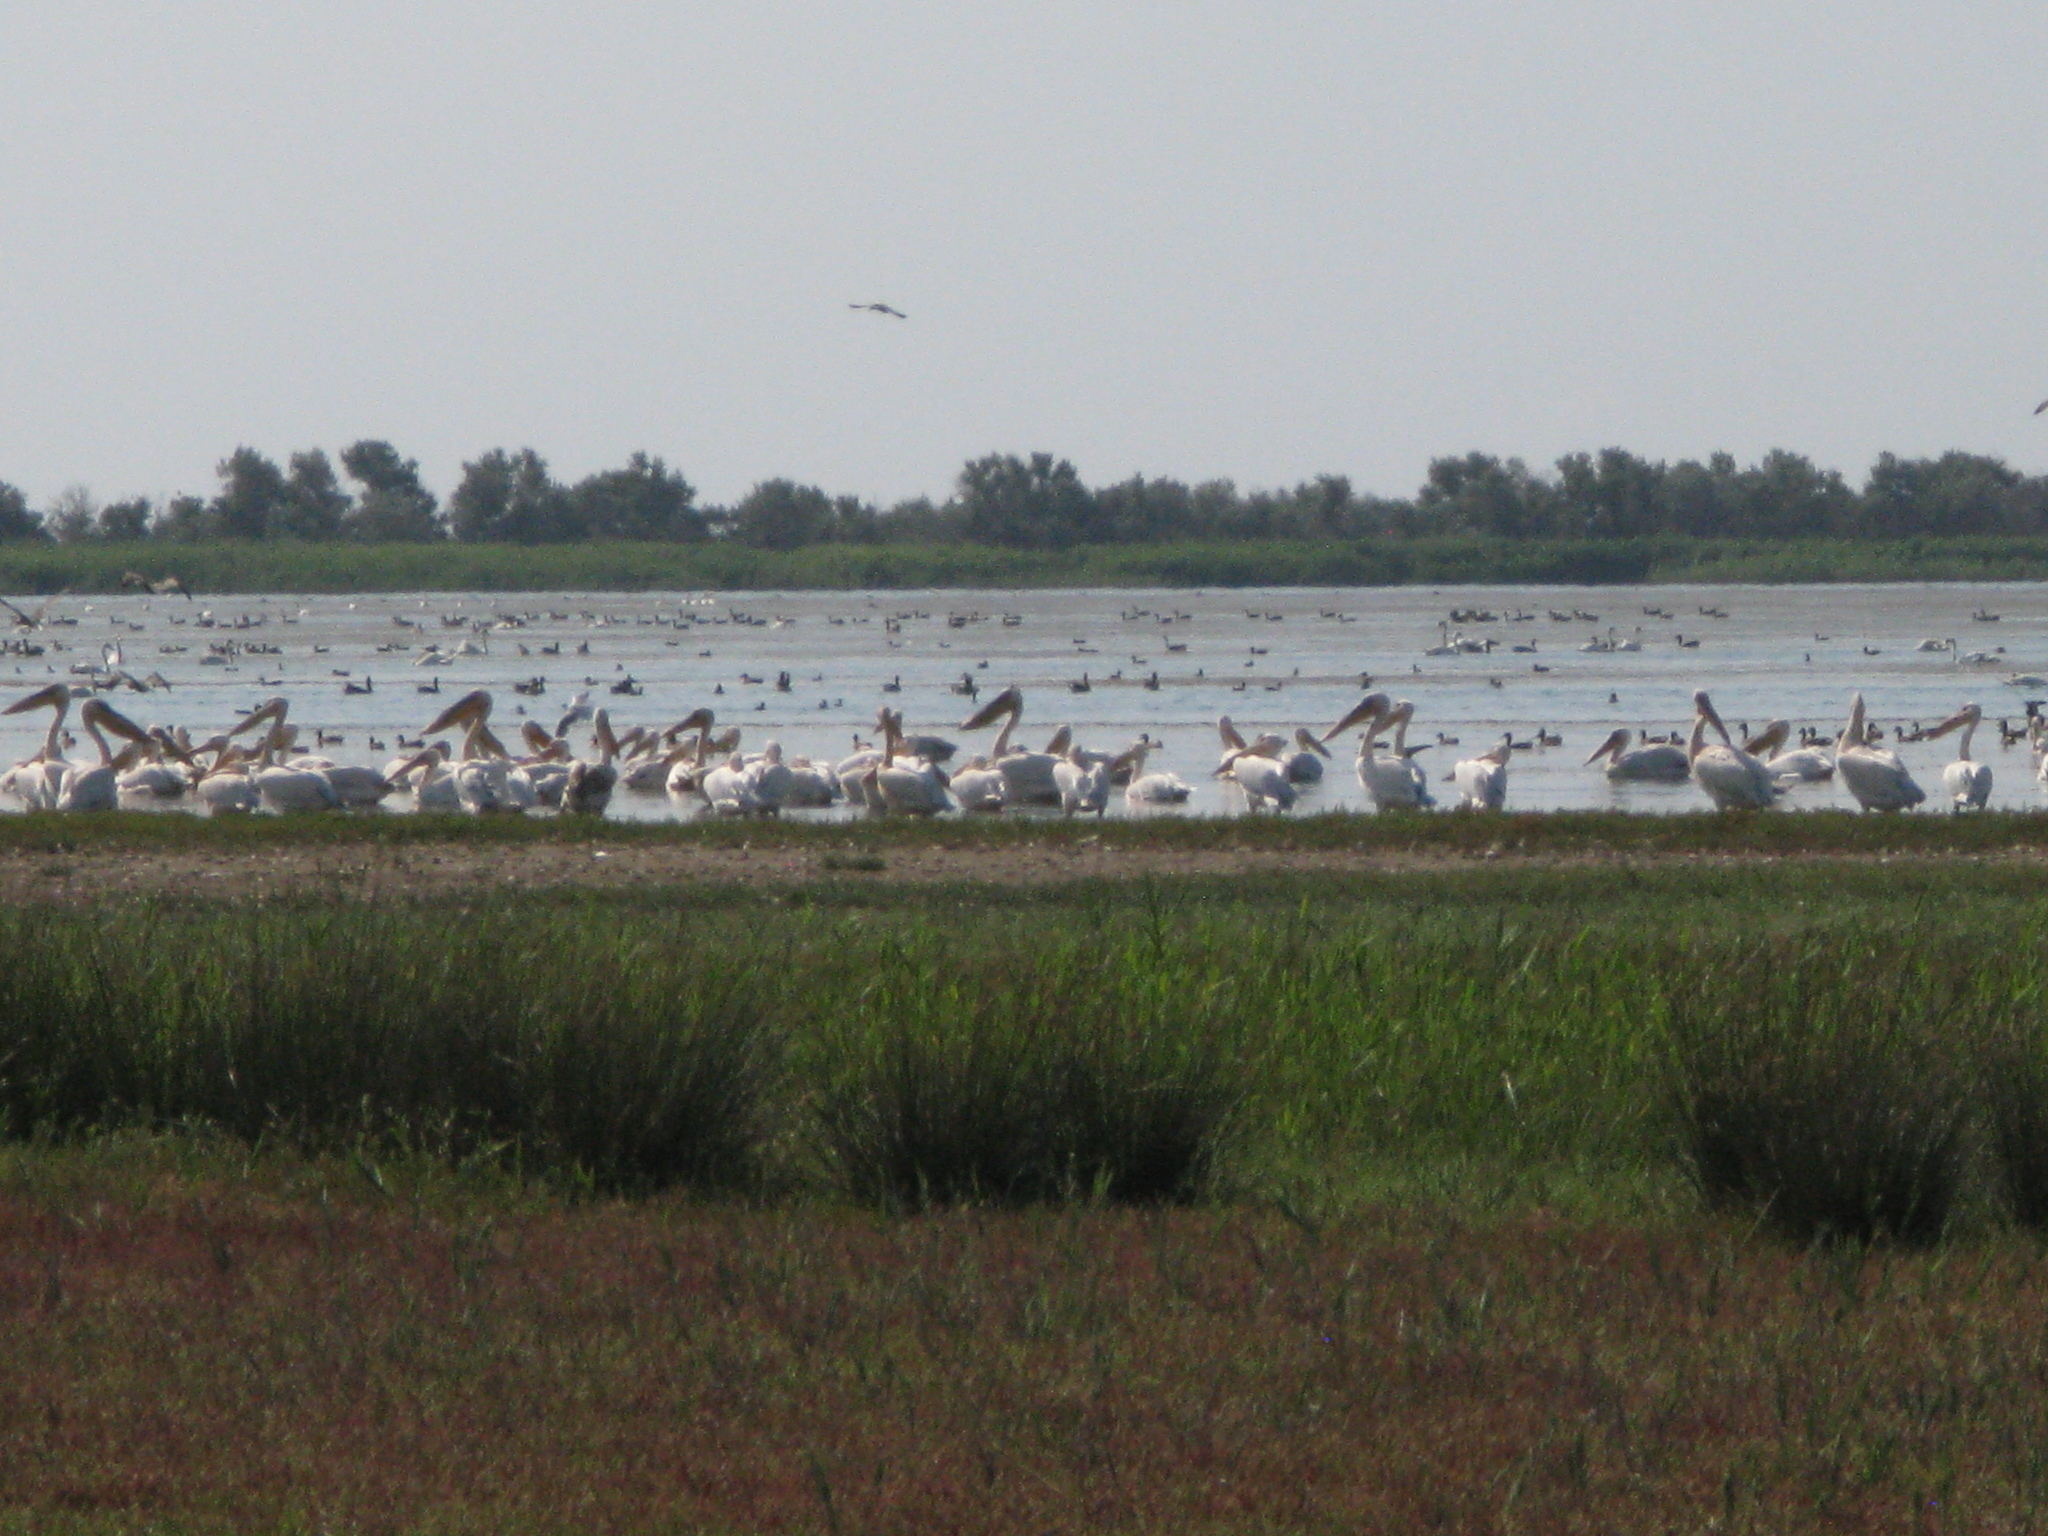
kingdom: Animalia
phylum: Chordata
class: Aves
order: Pelecaniformes
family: Pelecanidae
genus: Pelecanus
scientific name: Pelecanus onocrotalus
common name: Great white pelican
